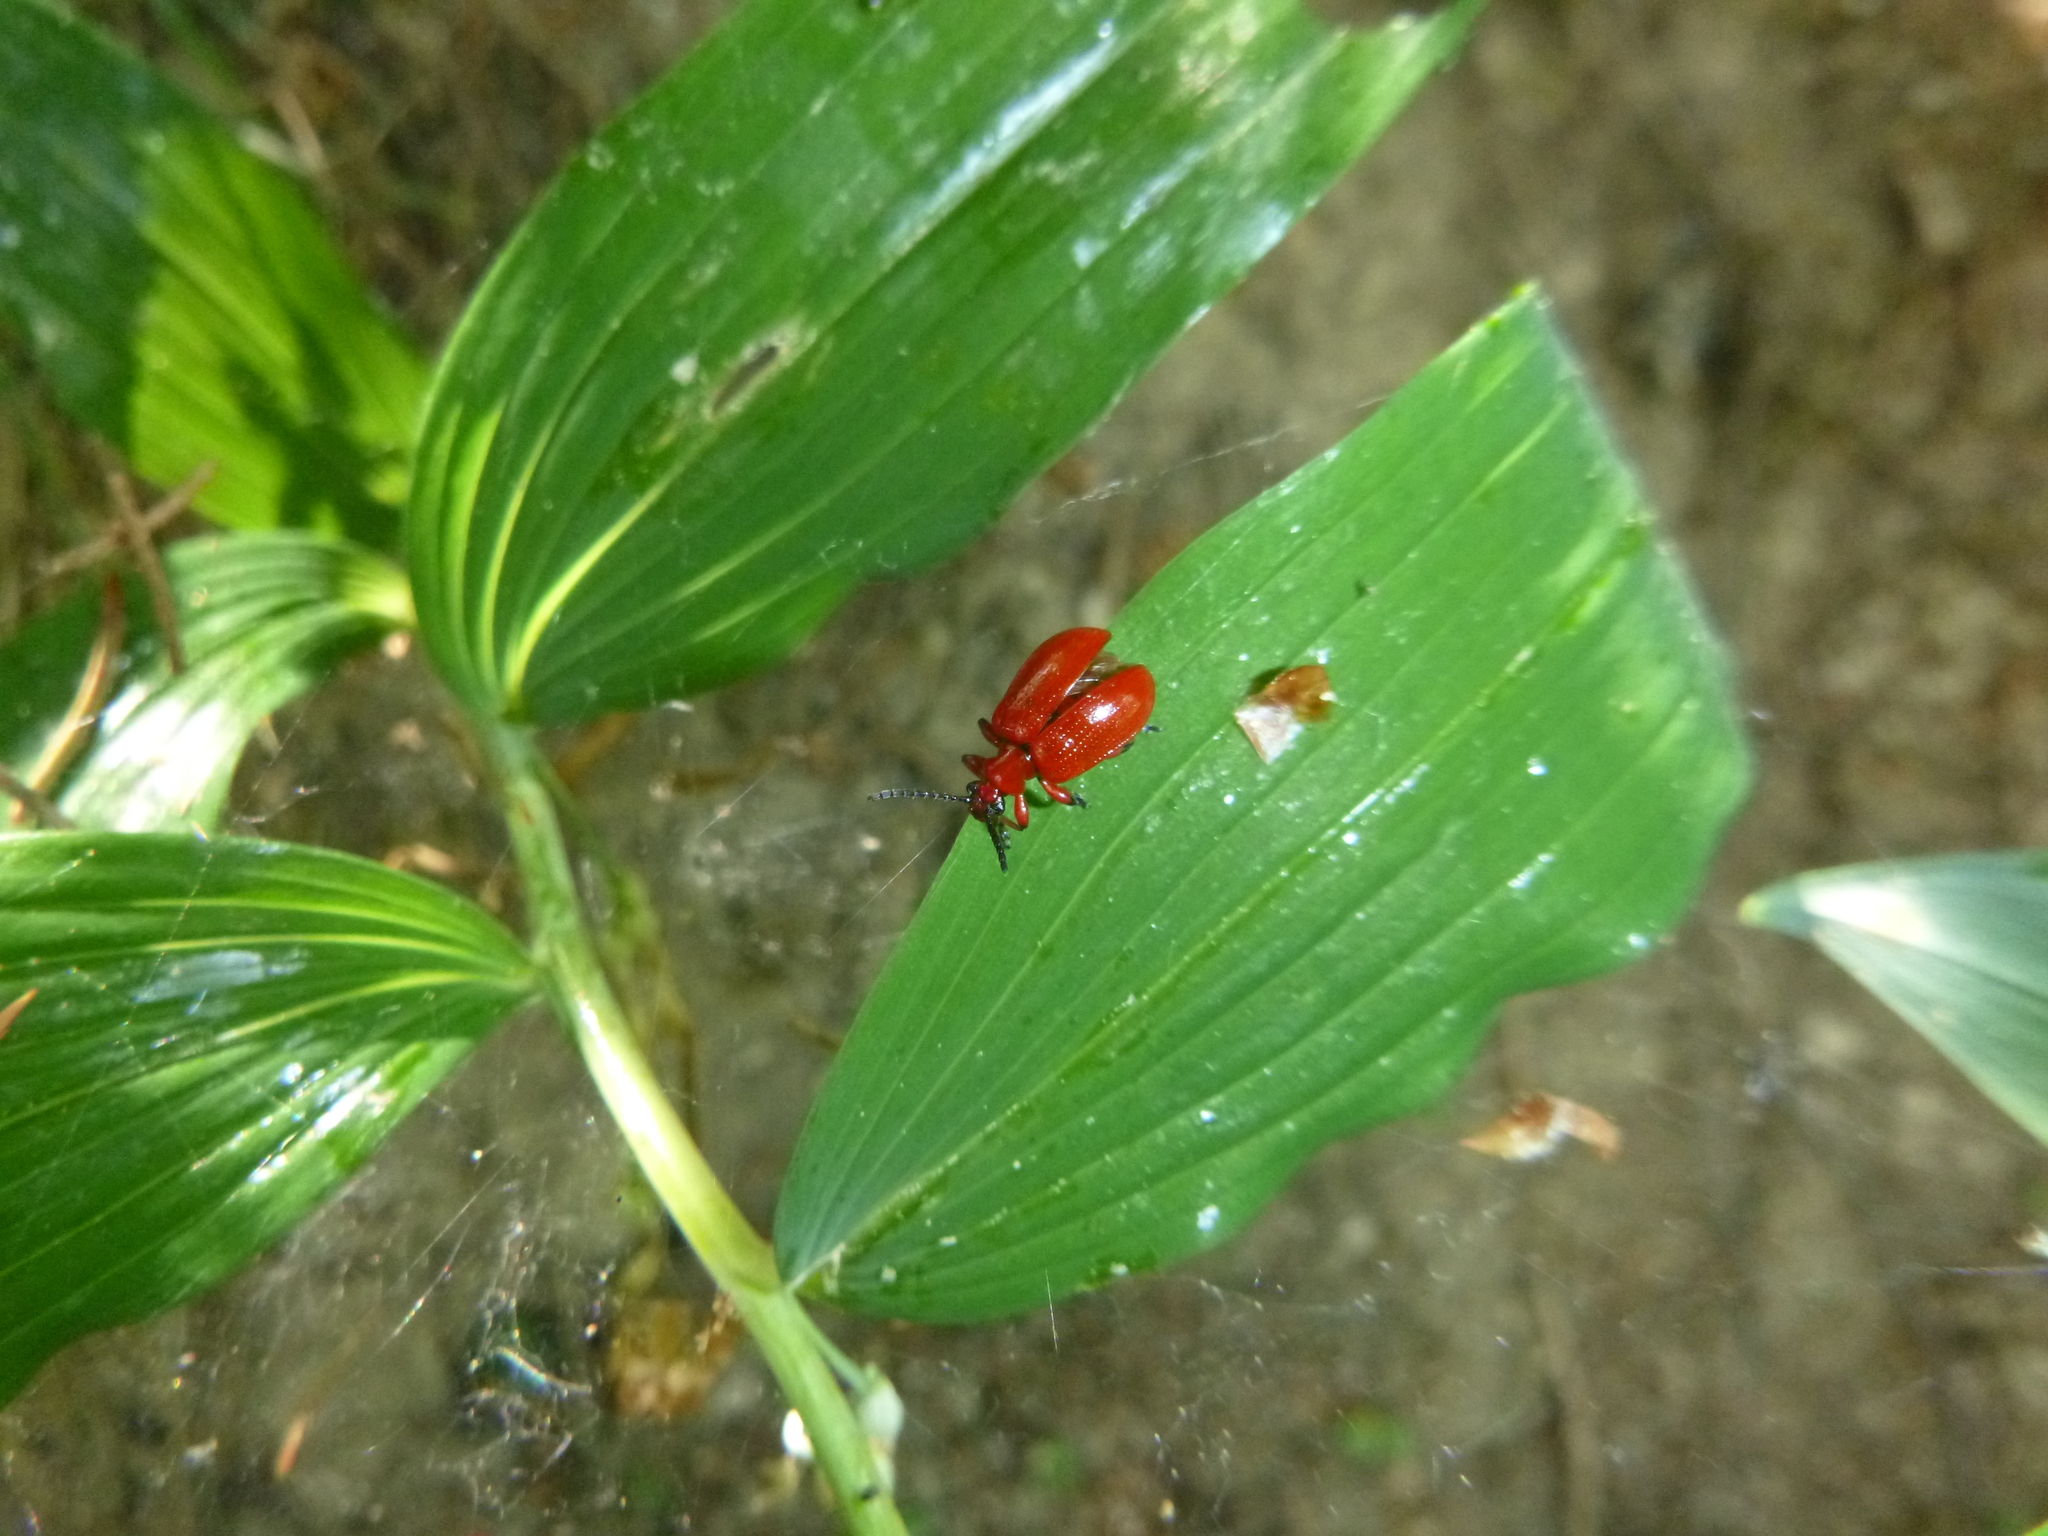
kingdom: Animalia
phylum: Arthropoda
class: Insecta
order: Coleoptera
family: Chrysomelidae
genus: Lilioceris
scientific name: Lilioceris merdigera
